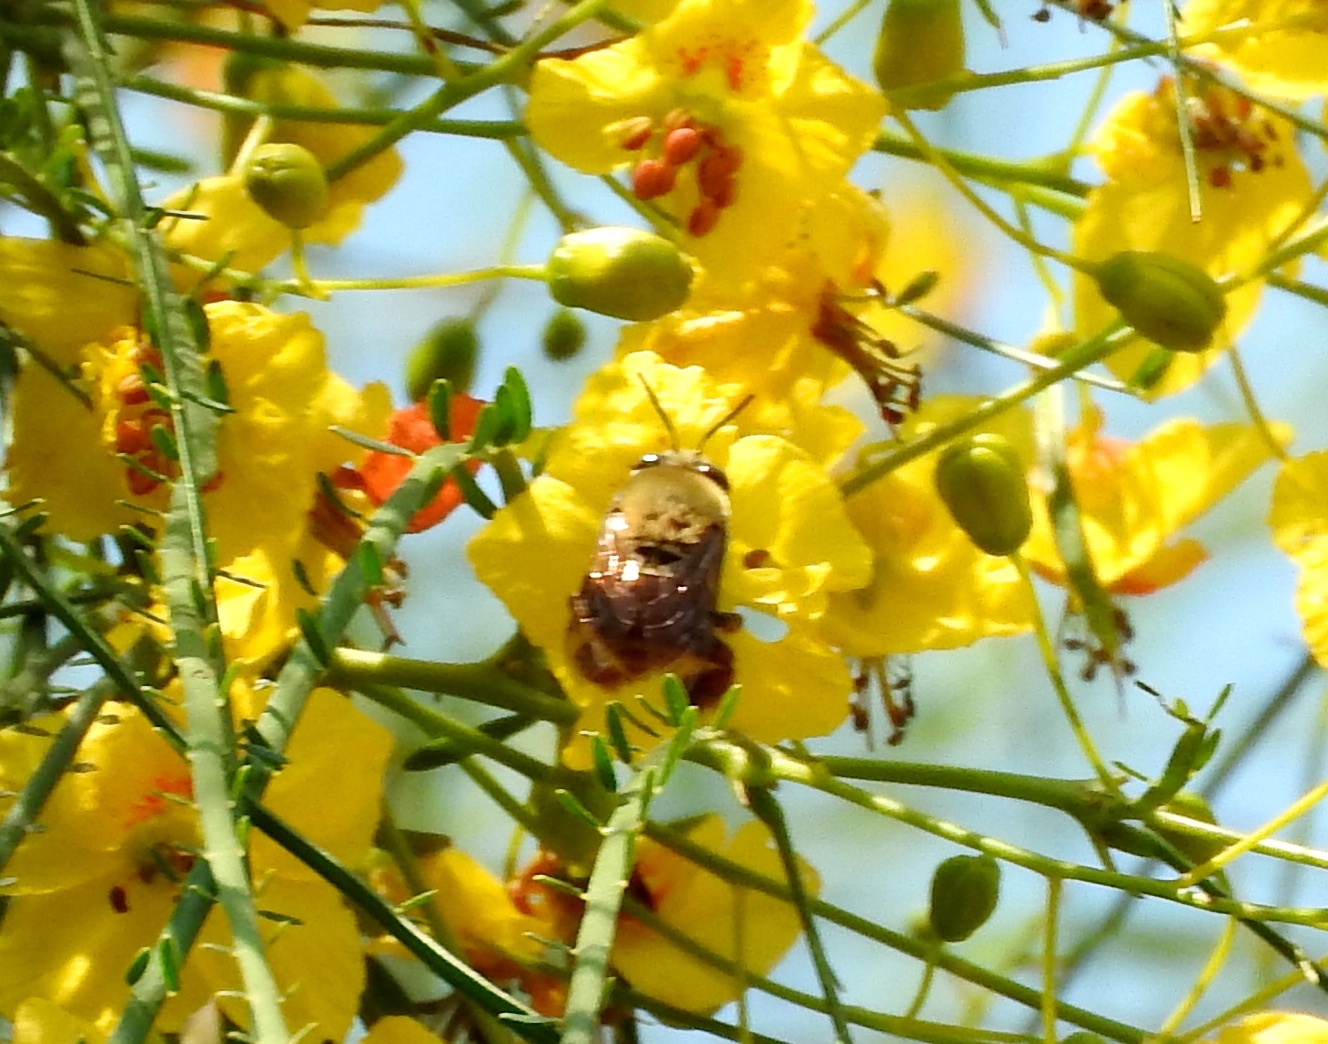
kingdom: Animalia
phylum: Arthropoda
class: Insecta
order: Hymenoptera
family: Apidae
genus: Centris
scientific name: Centris
